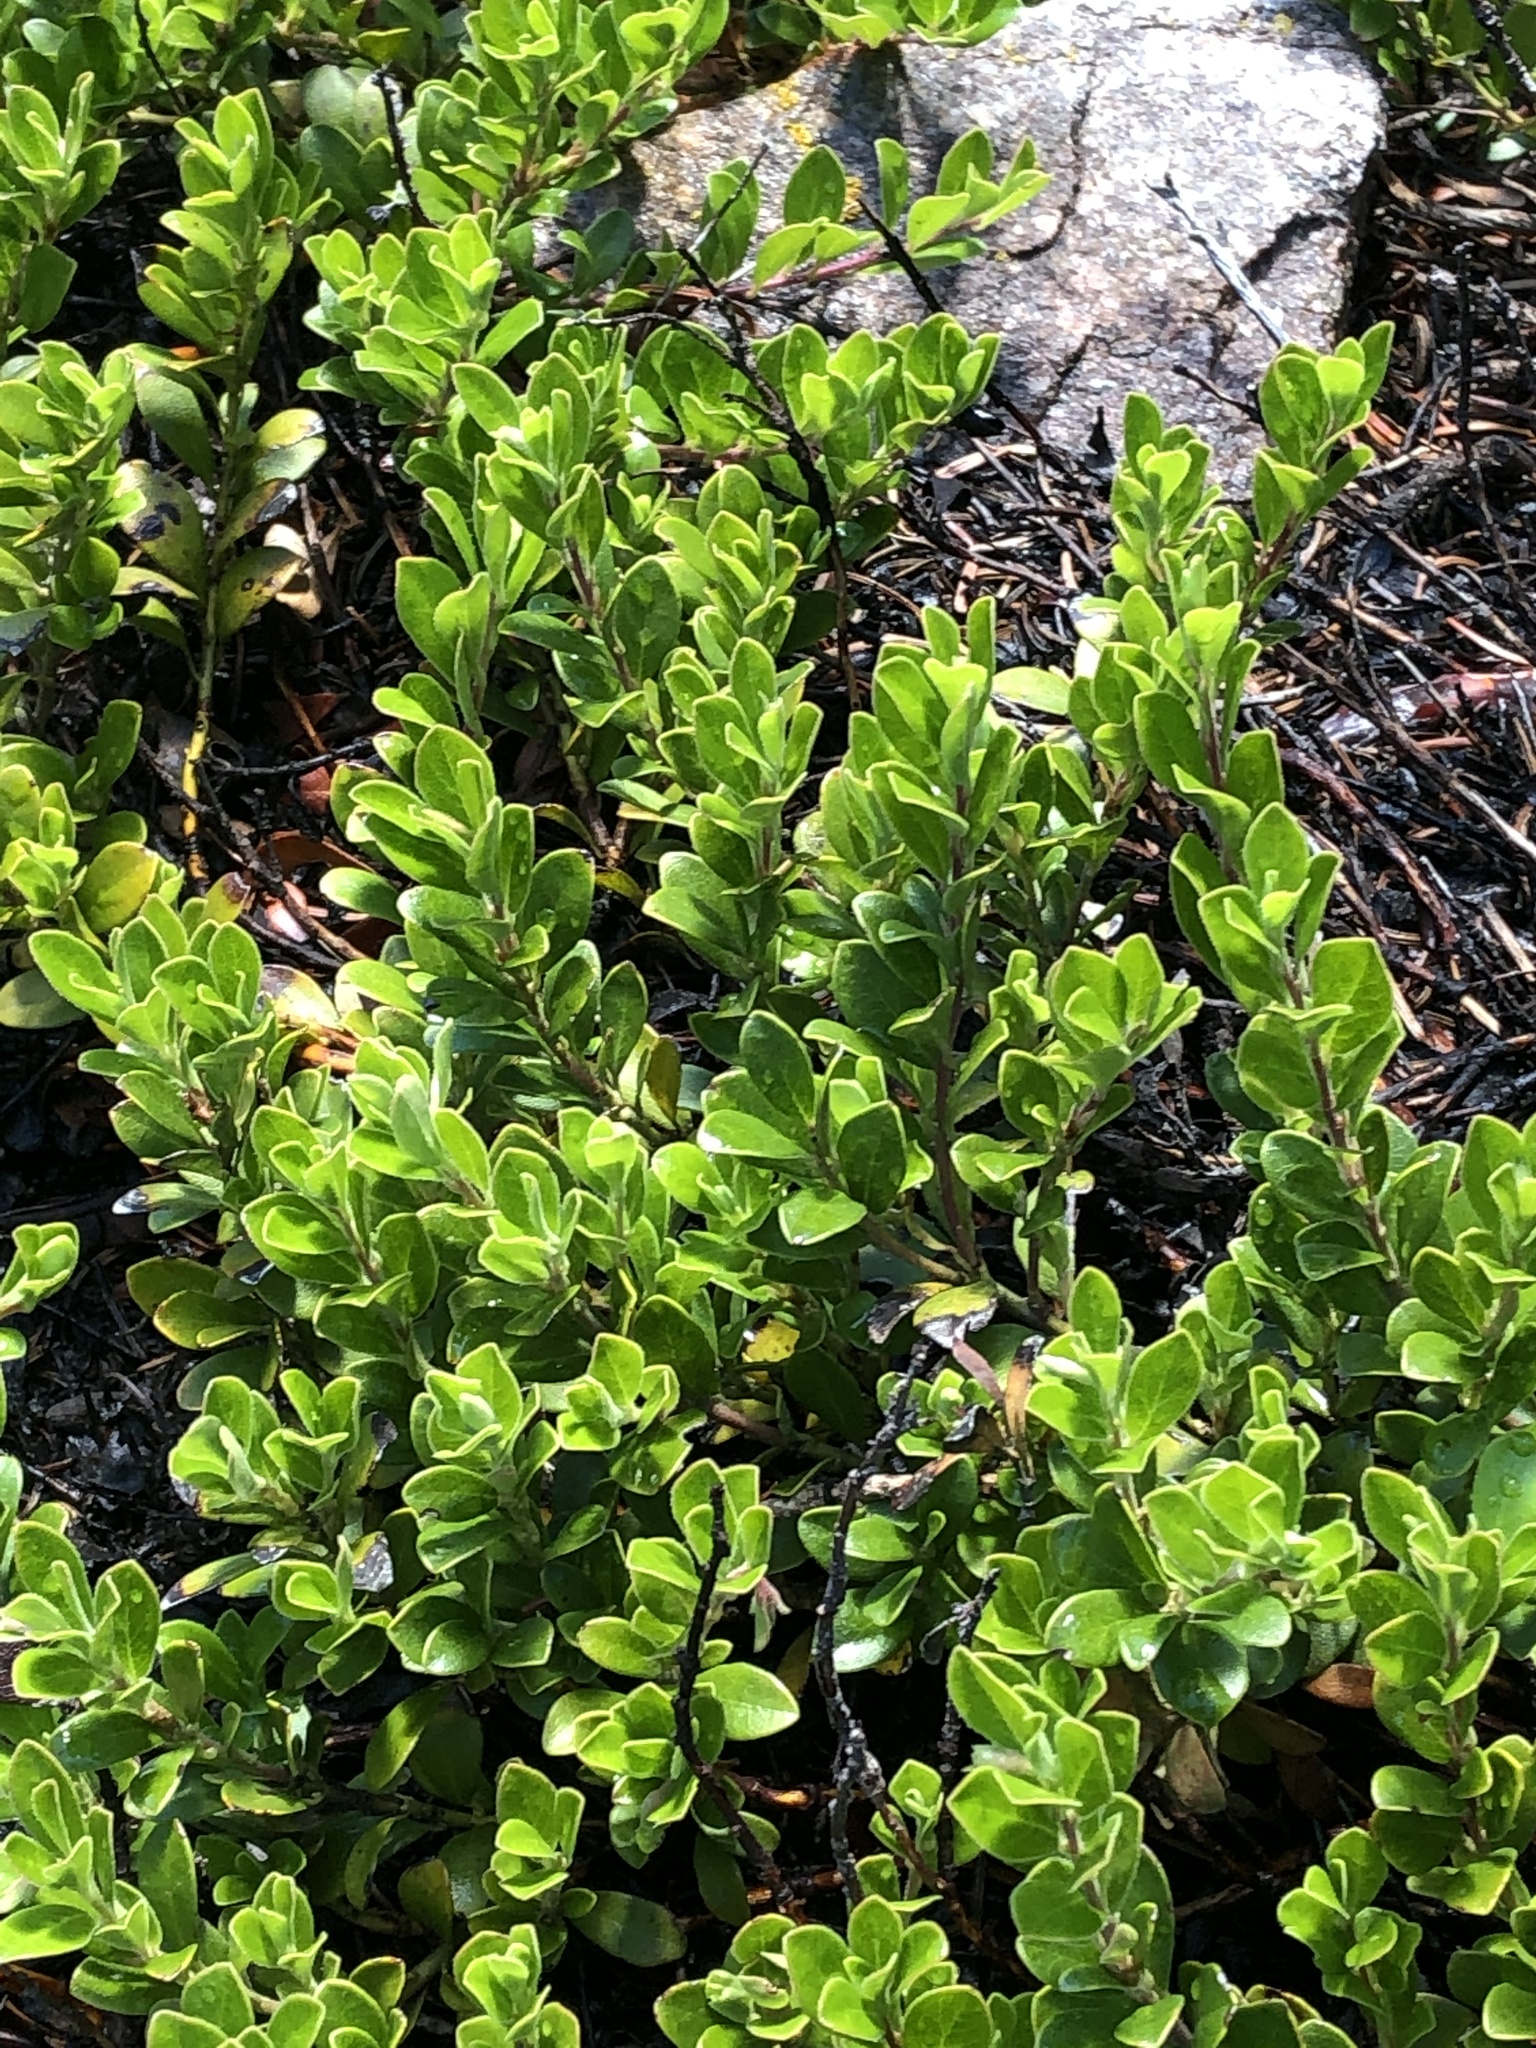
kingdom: Plantae
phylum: Tracheophyta
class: Magnoliopsida
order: Ericales
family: Ericaceae
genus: Arctostaphylos
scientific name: Arctostaphylos uva-ursi
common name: Bearberry
